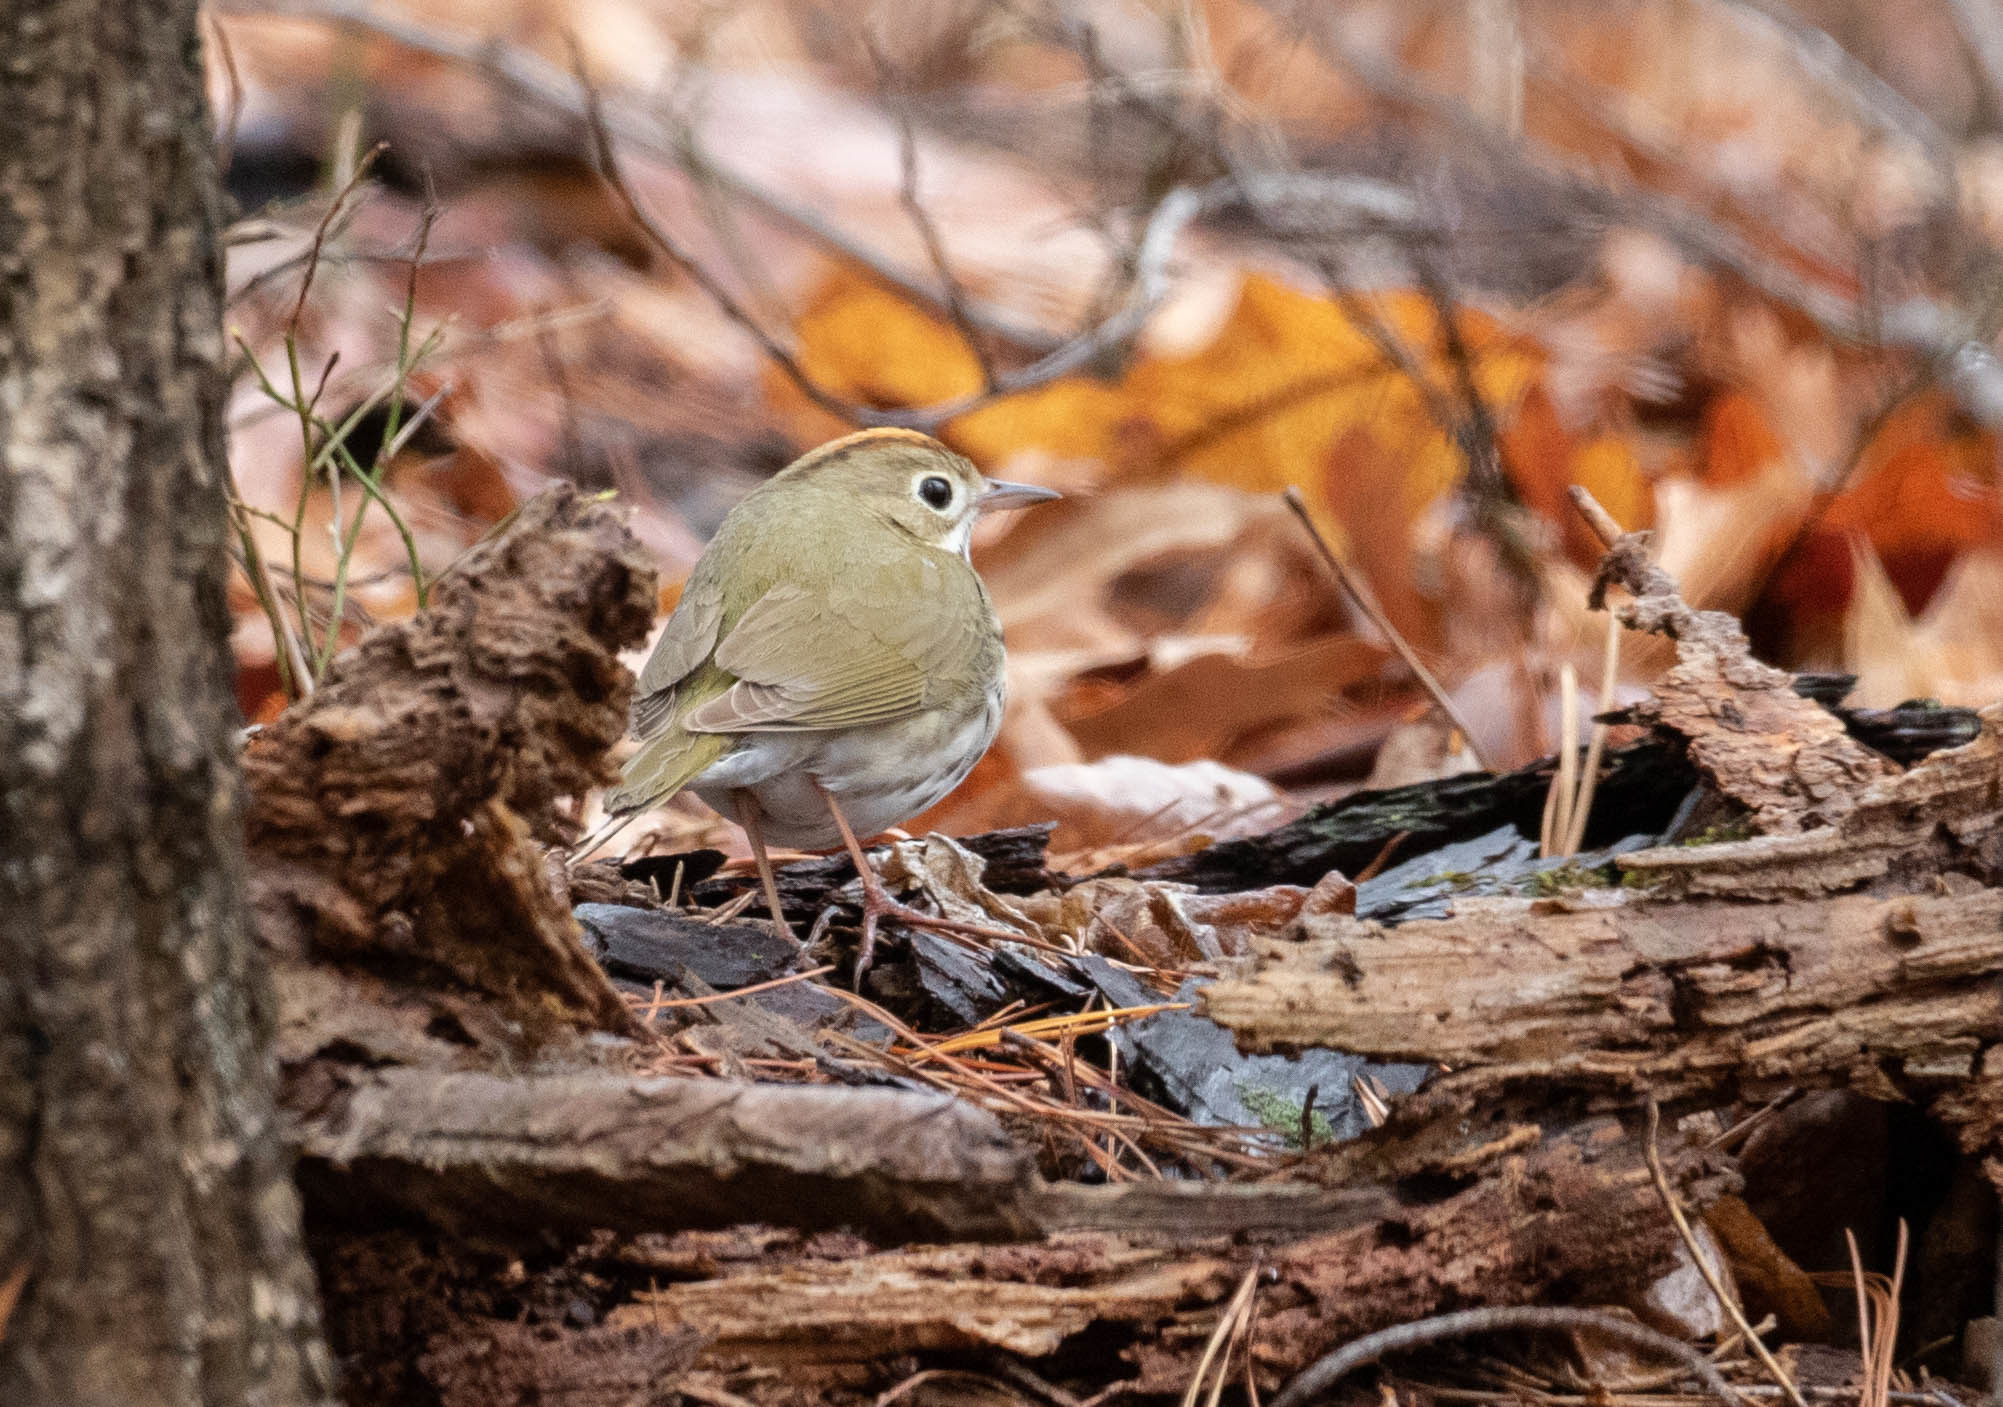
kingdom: Animalia
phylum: Chordata
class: Aves
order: Passeriformes
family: Parulidae
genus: Seiurus
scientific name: Seiurus aurocapilla
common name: Ovenbird
